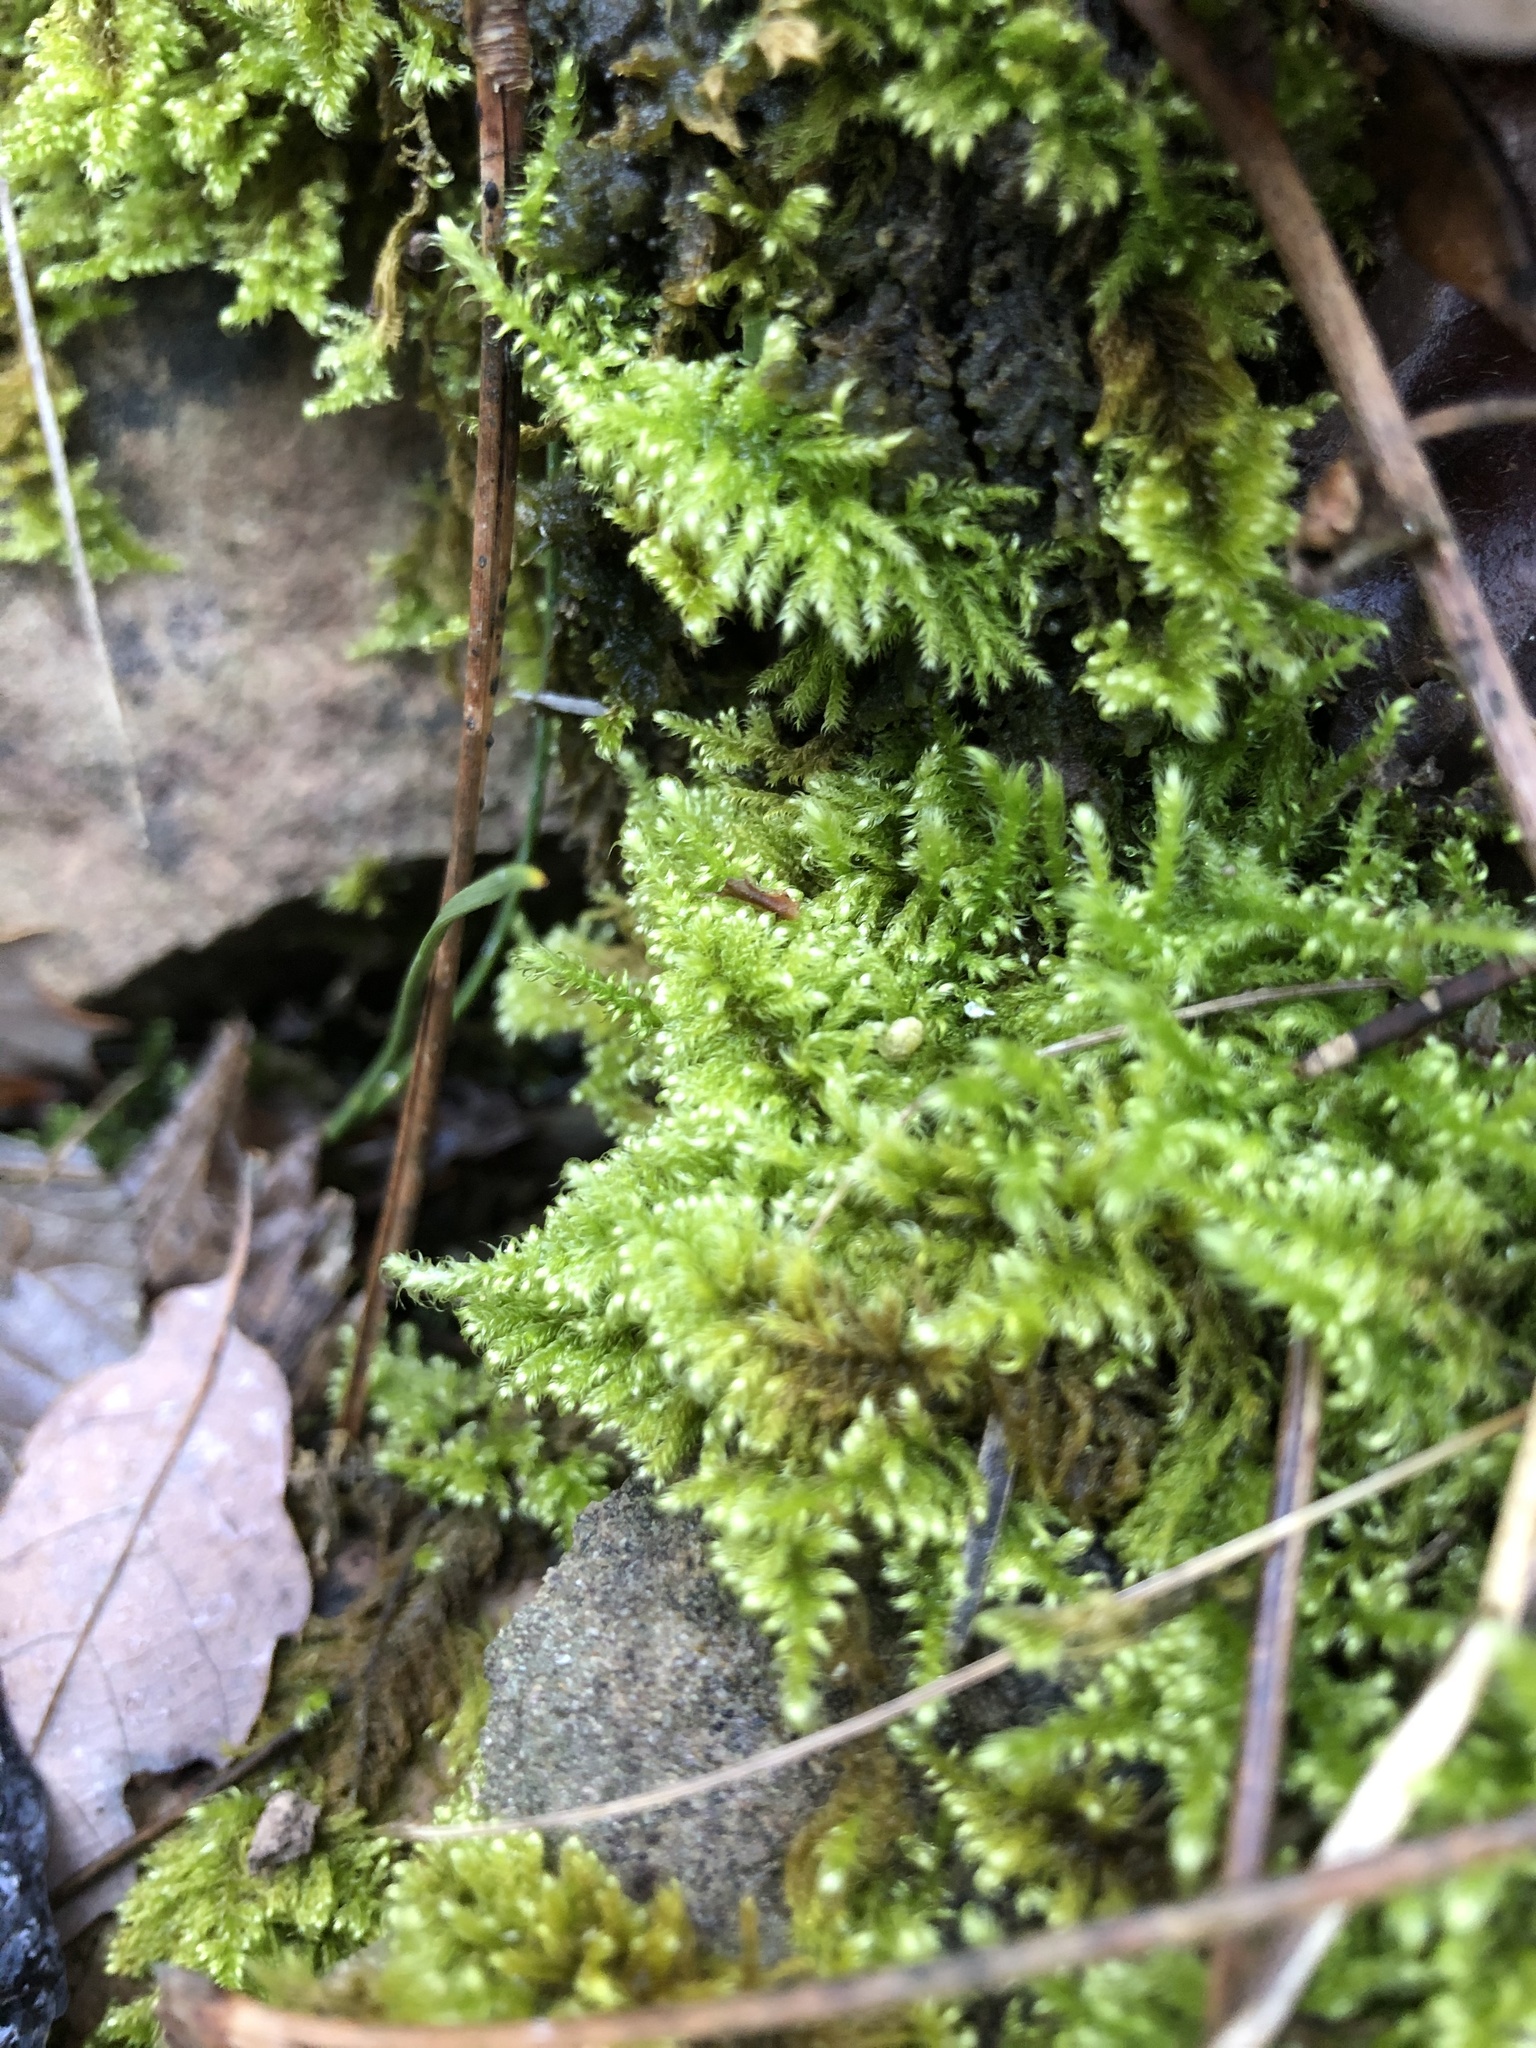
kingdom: Plantae
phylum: Bryophyta
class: Bryopsida
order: Hypnales
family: Myuriaceae
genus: Ctenidium
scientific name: Ctenidium molluscum
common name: Chalk comb-moss
